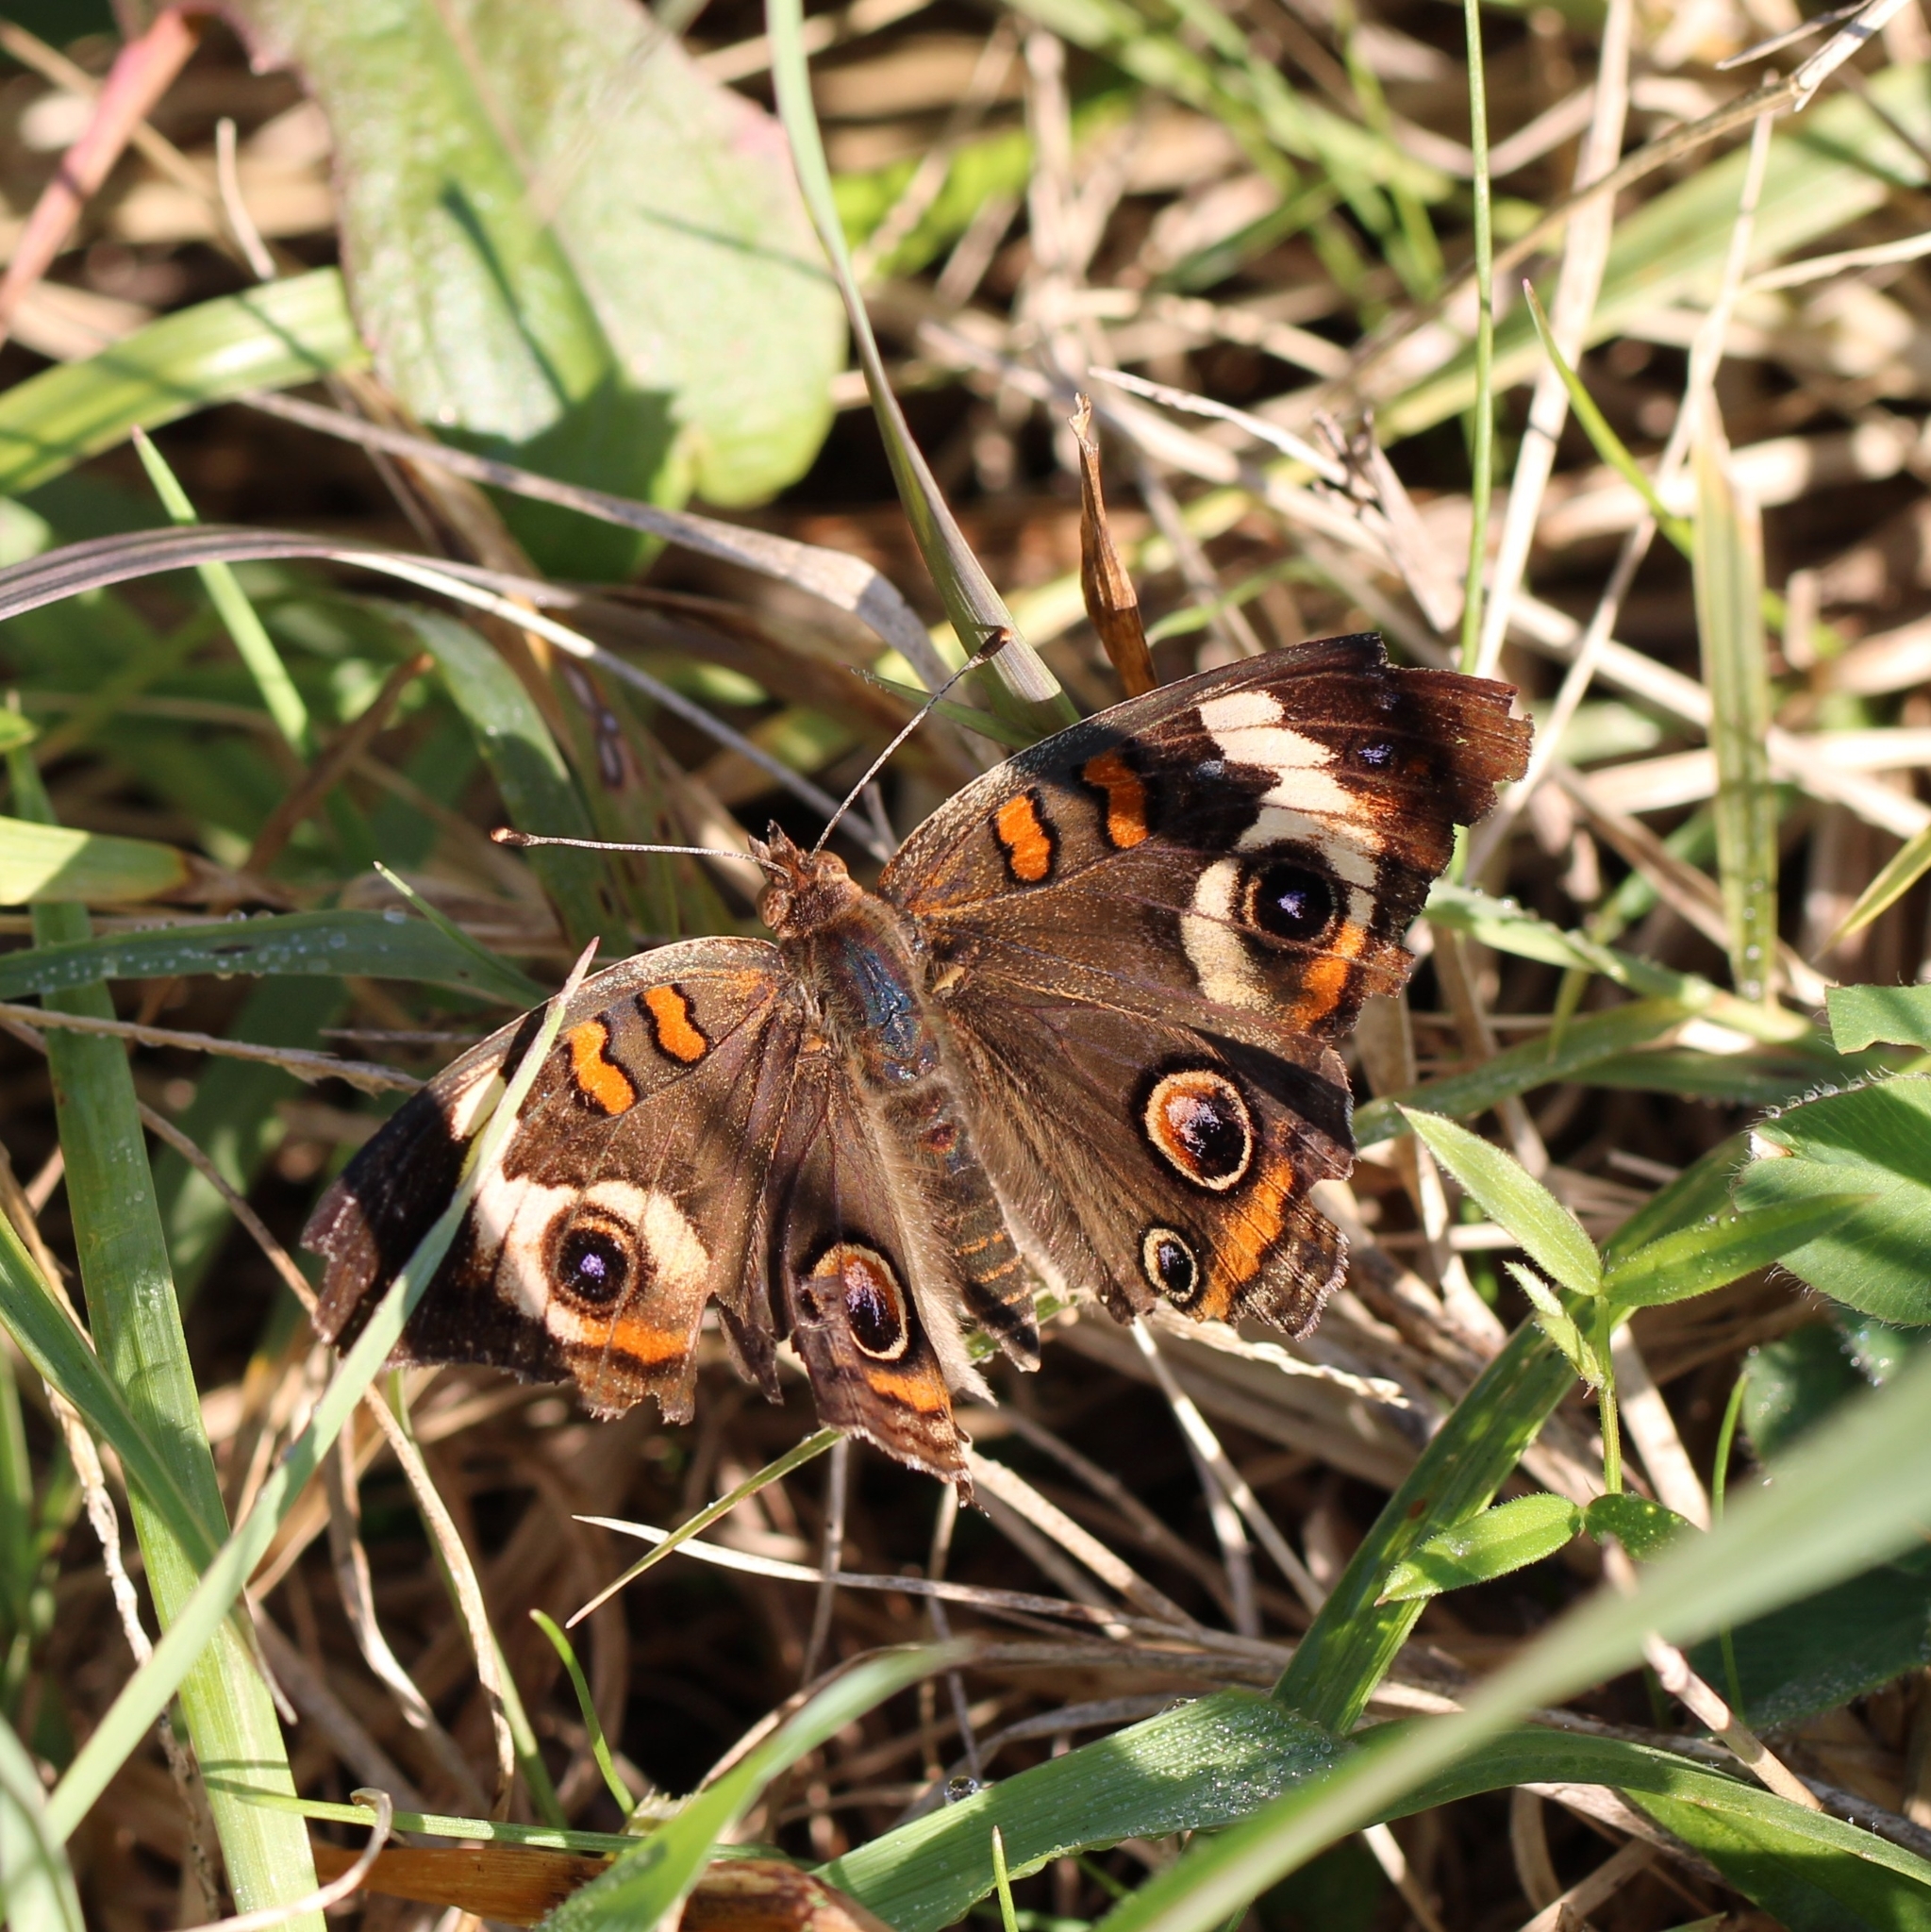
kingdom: Animalia
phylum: Arthropoda
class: Insecta
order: Lepidoptera
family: Nymphalidae
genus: Junonia
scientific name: Junonia coenia
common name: Common buckeye
